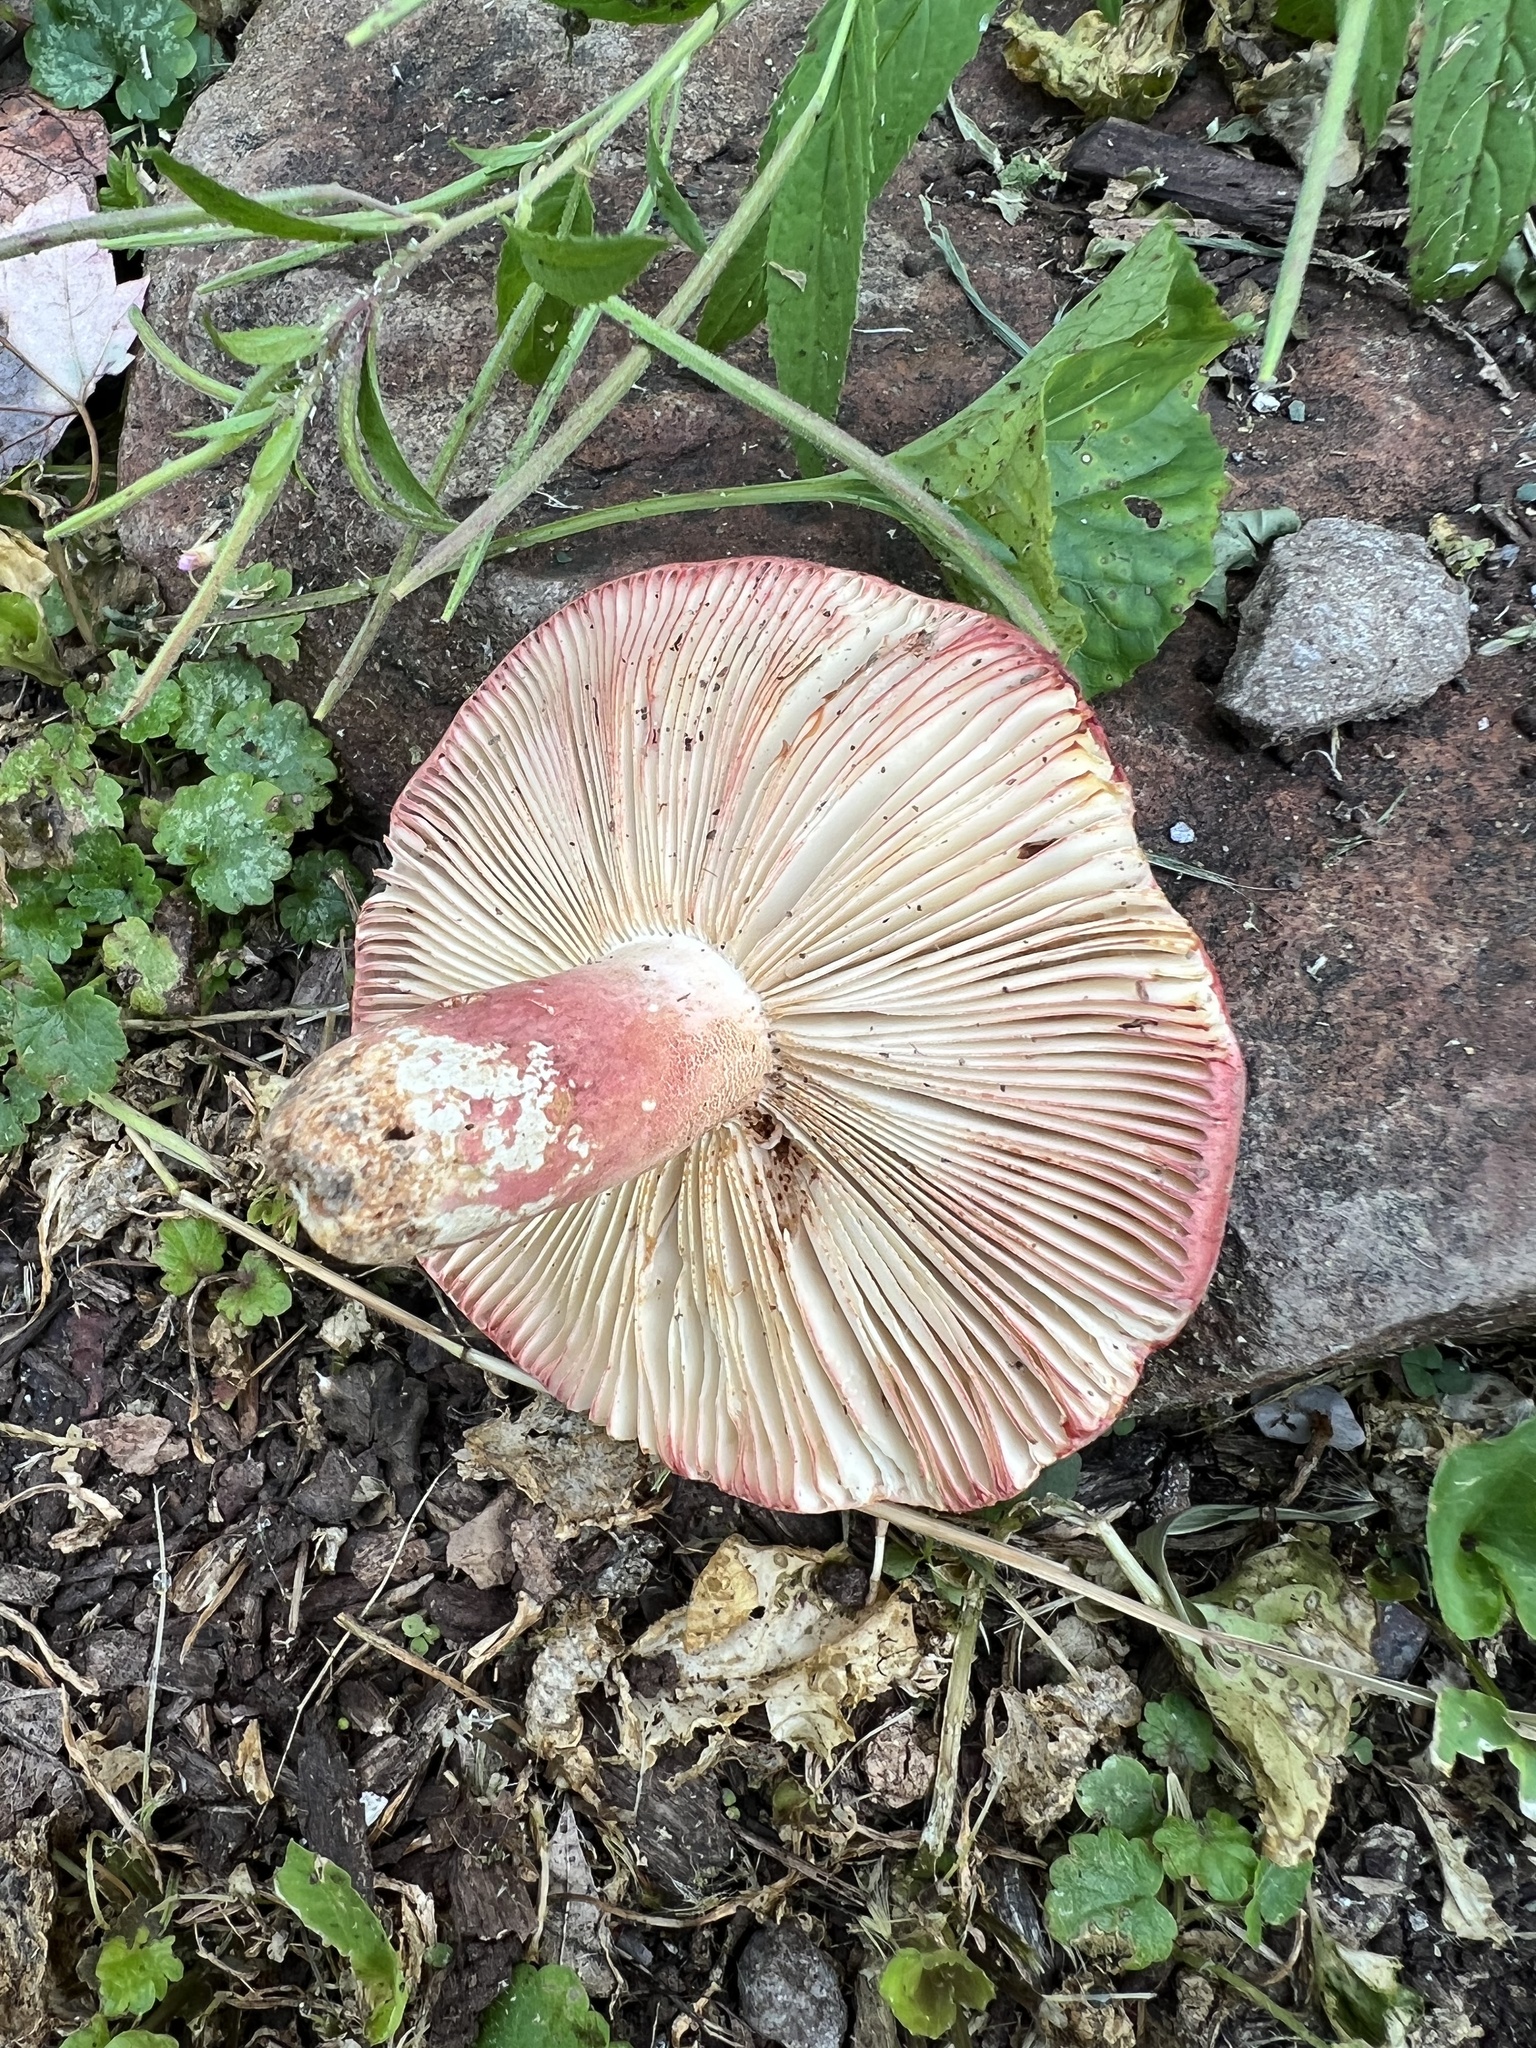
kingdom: Fungi
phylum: Basidiomycota
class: Agaricomycetes
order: Russulales
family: Russulaceae
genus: Russula
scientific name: Russula peckii
